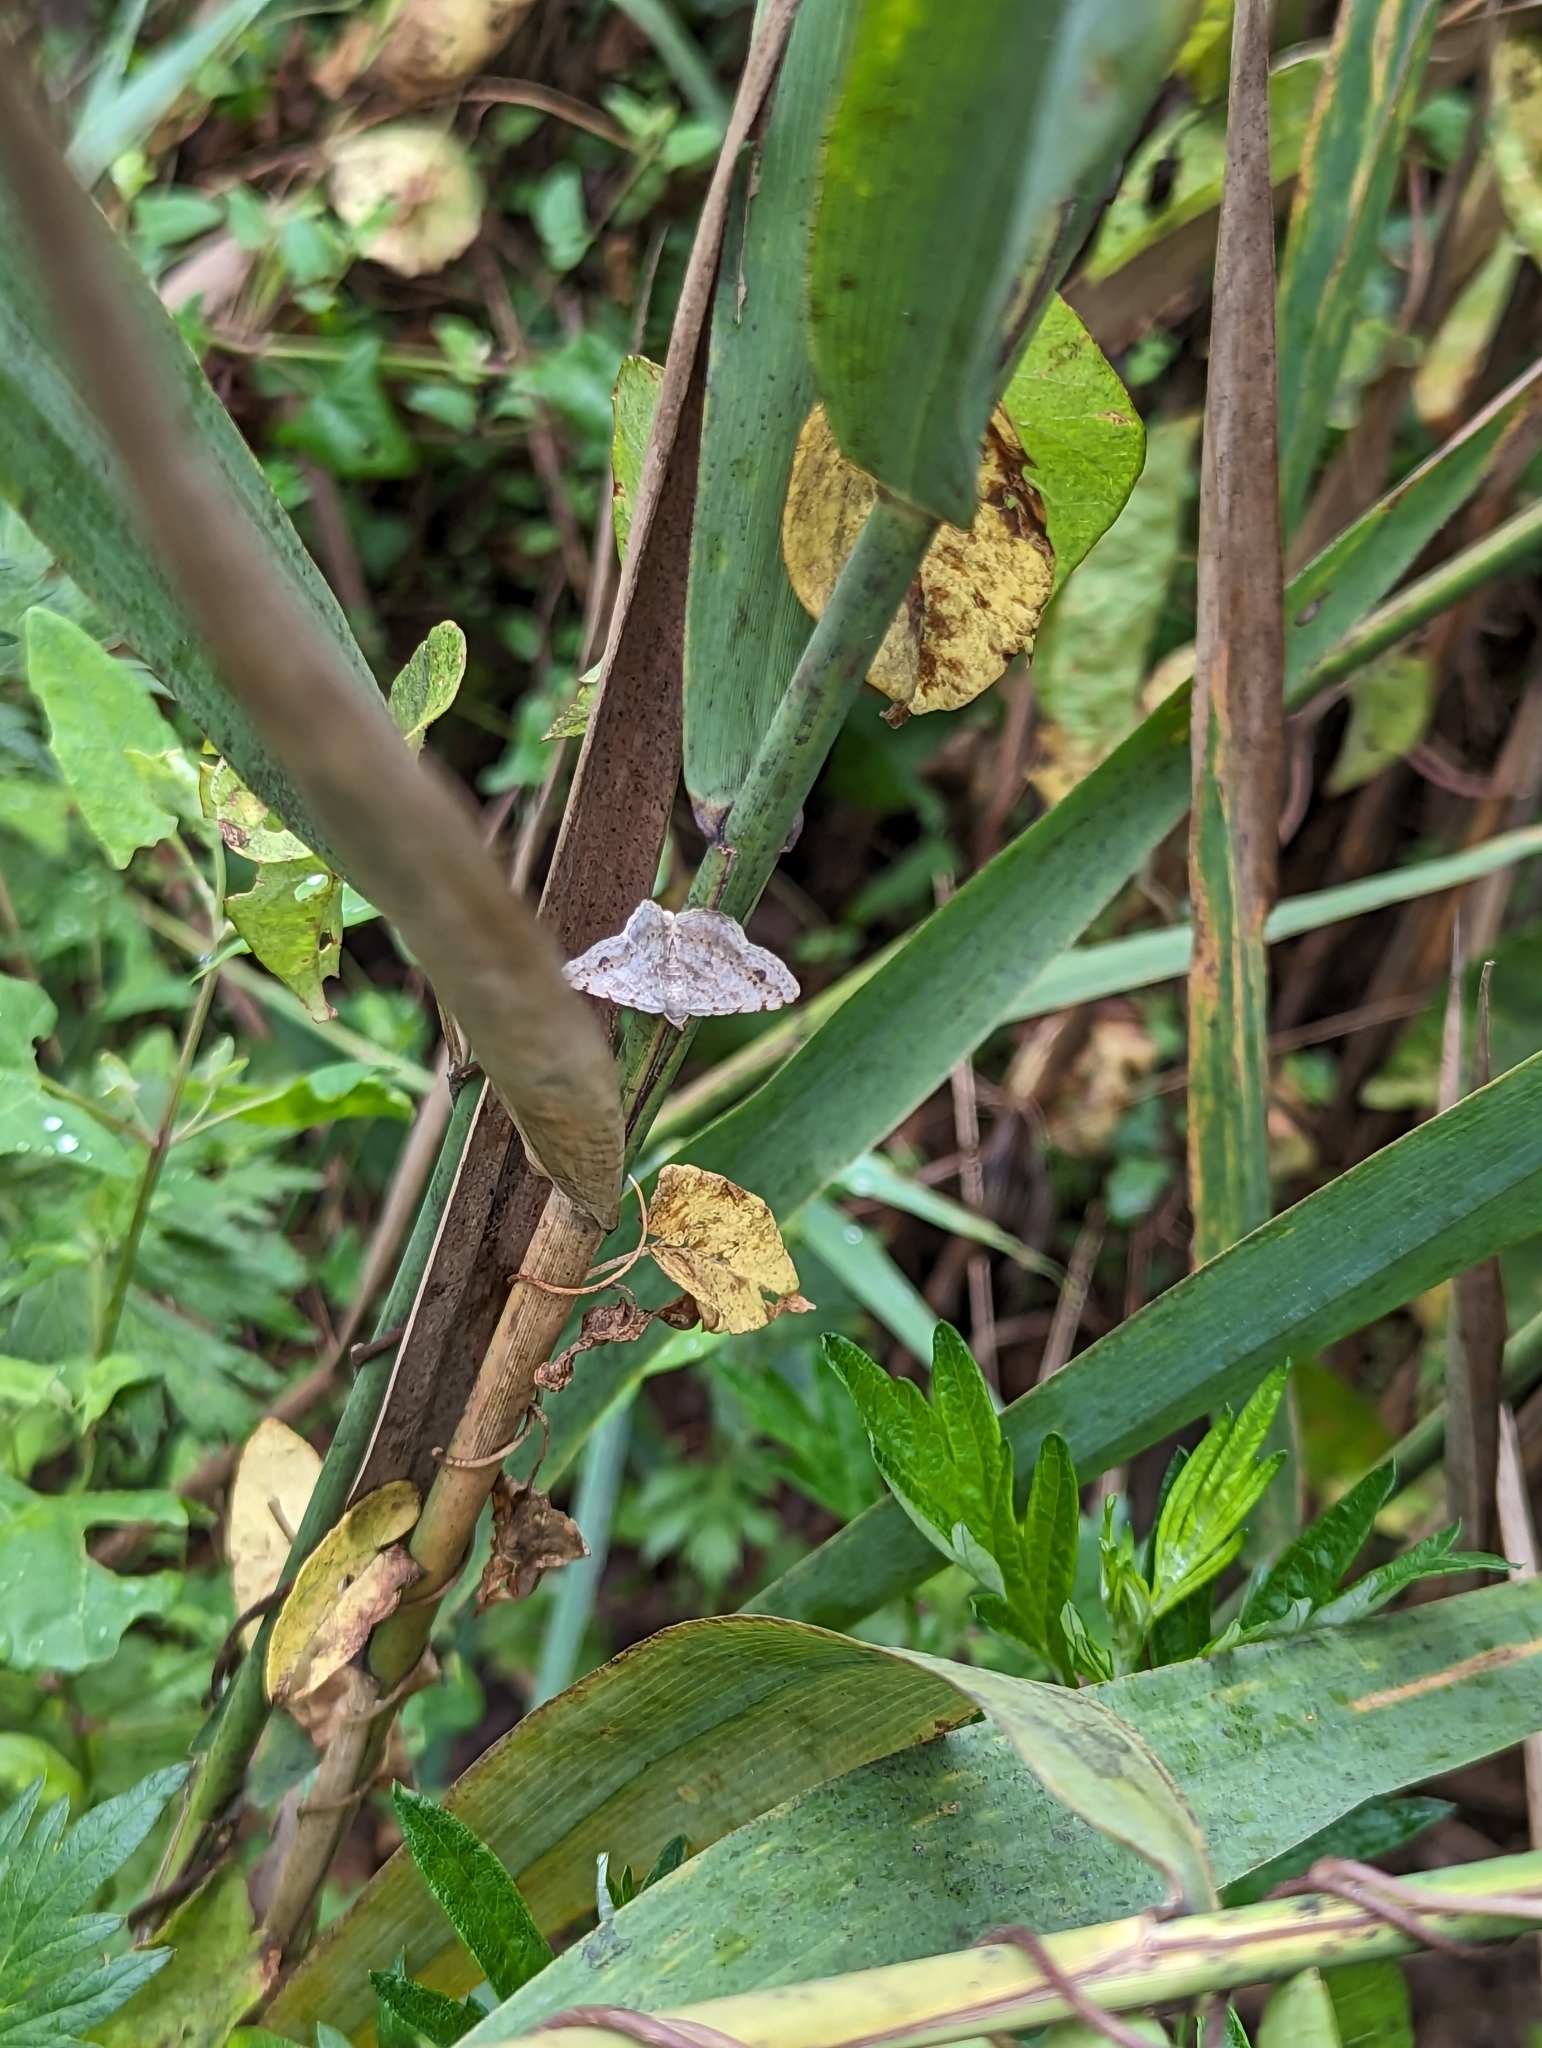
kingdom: Animalia
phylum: Arthropoda
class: Insecta
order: Lepidoptera
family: Geometridae
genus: Digrammia
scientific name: Digrammia ocellinata
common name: Faint-spotted angle
